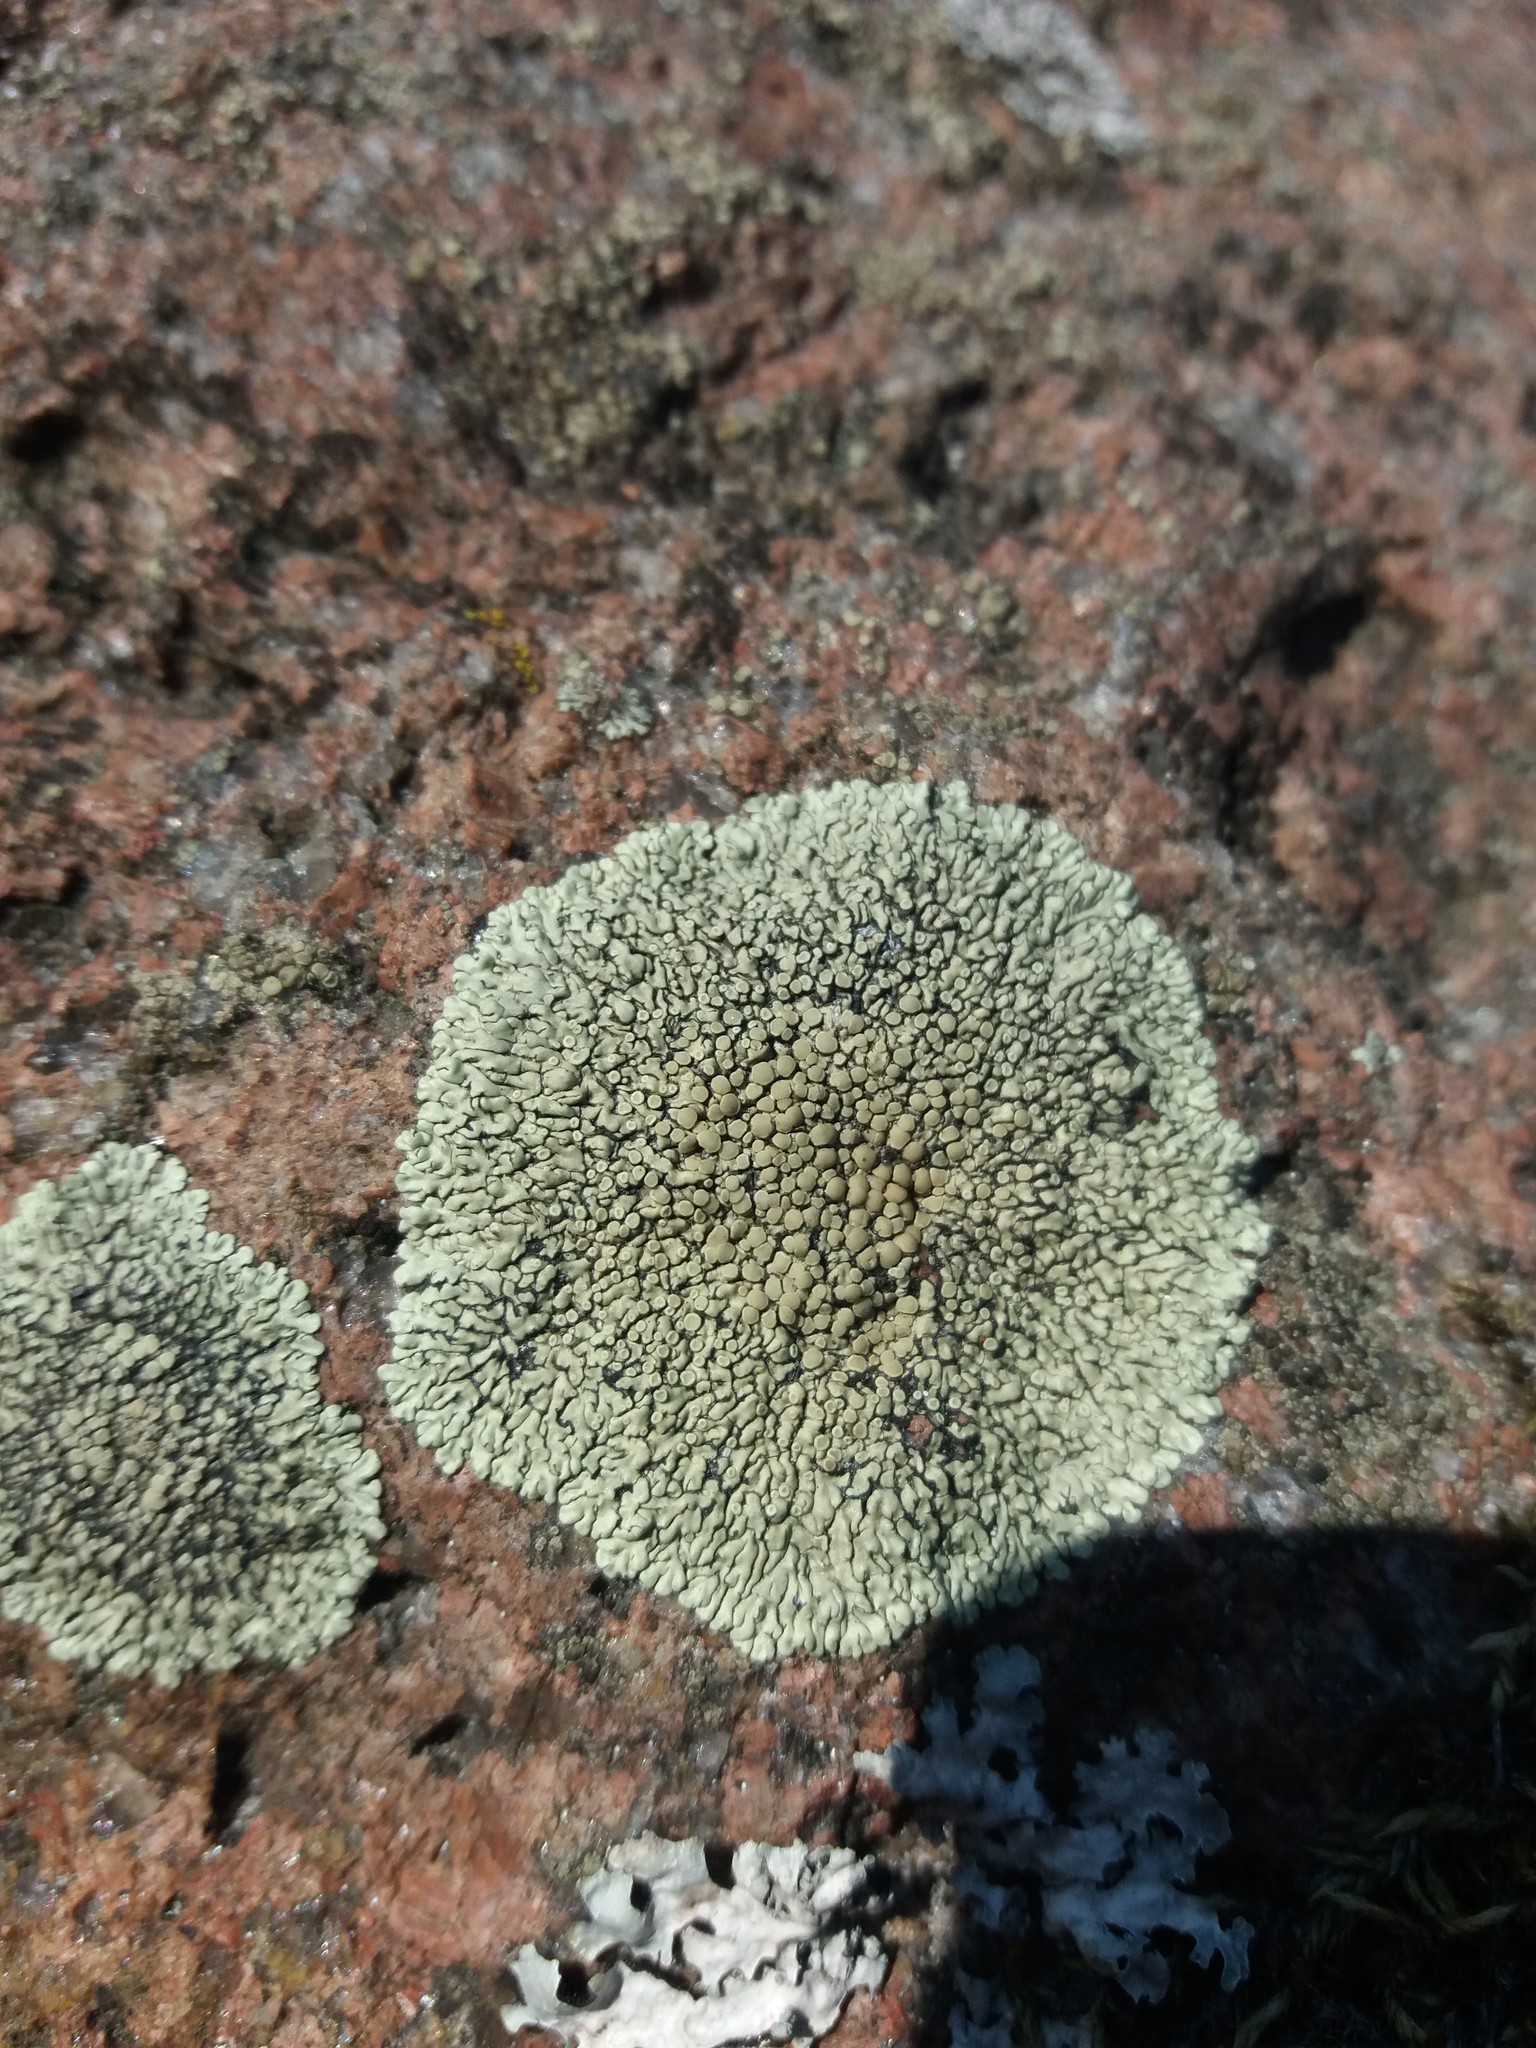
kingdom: Fungi
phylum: Ascomycota
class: Lecanoromycetes
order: Lecanorales
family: Lecanoraceae
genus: Protoparmeliopsis
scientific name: Protoparmeliopsis muralis
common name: Stonewall rim lichen
